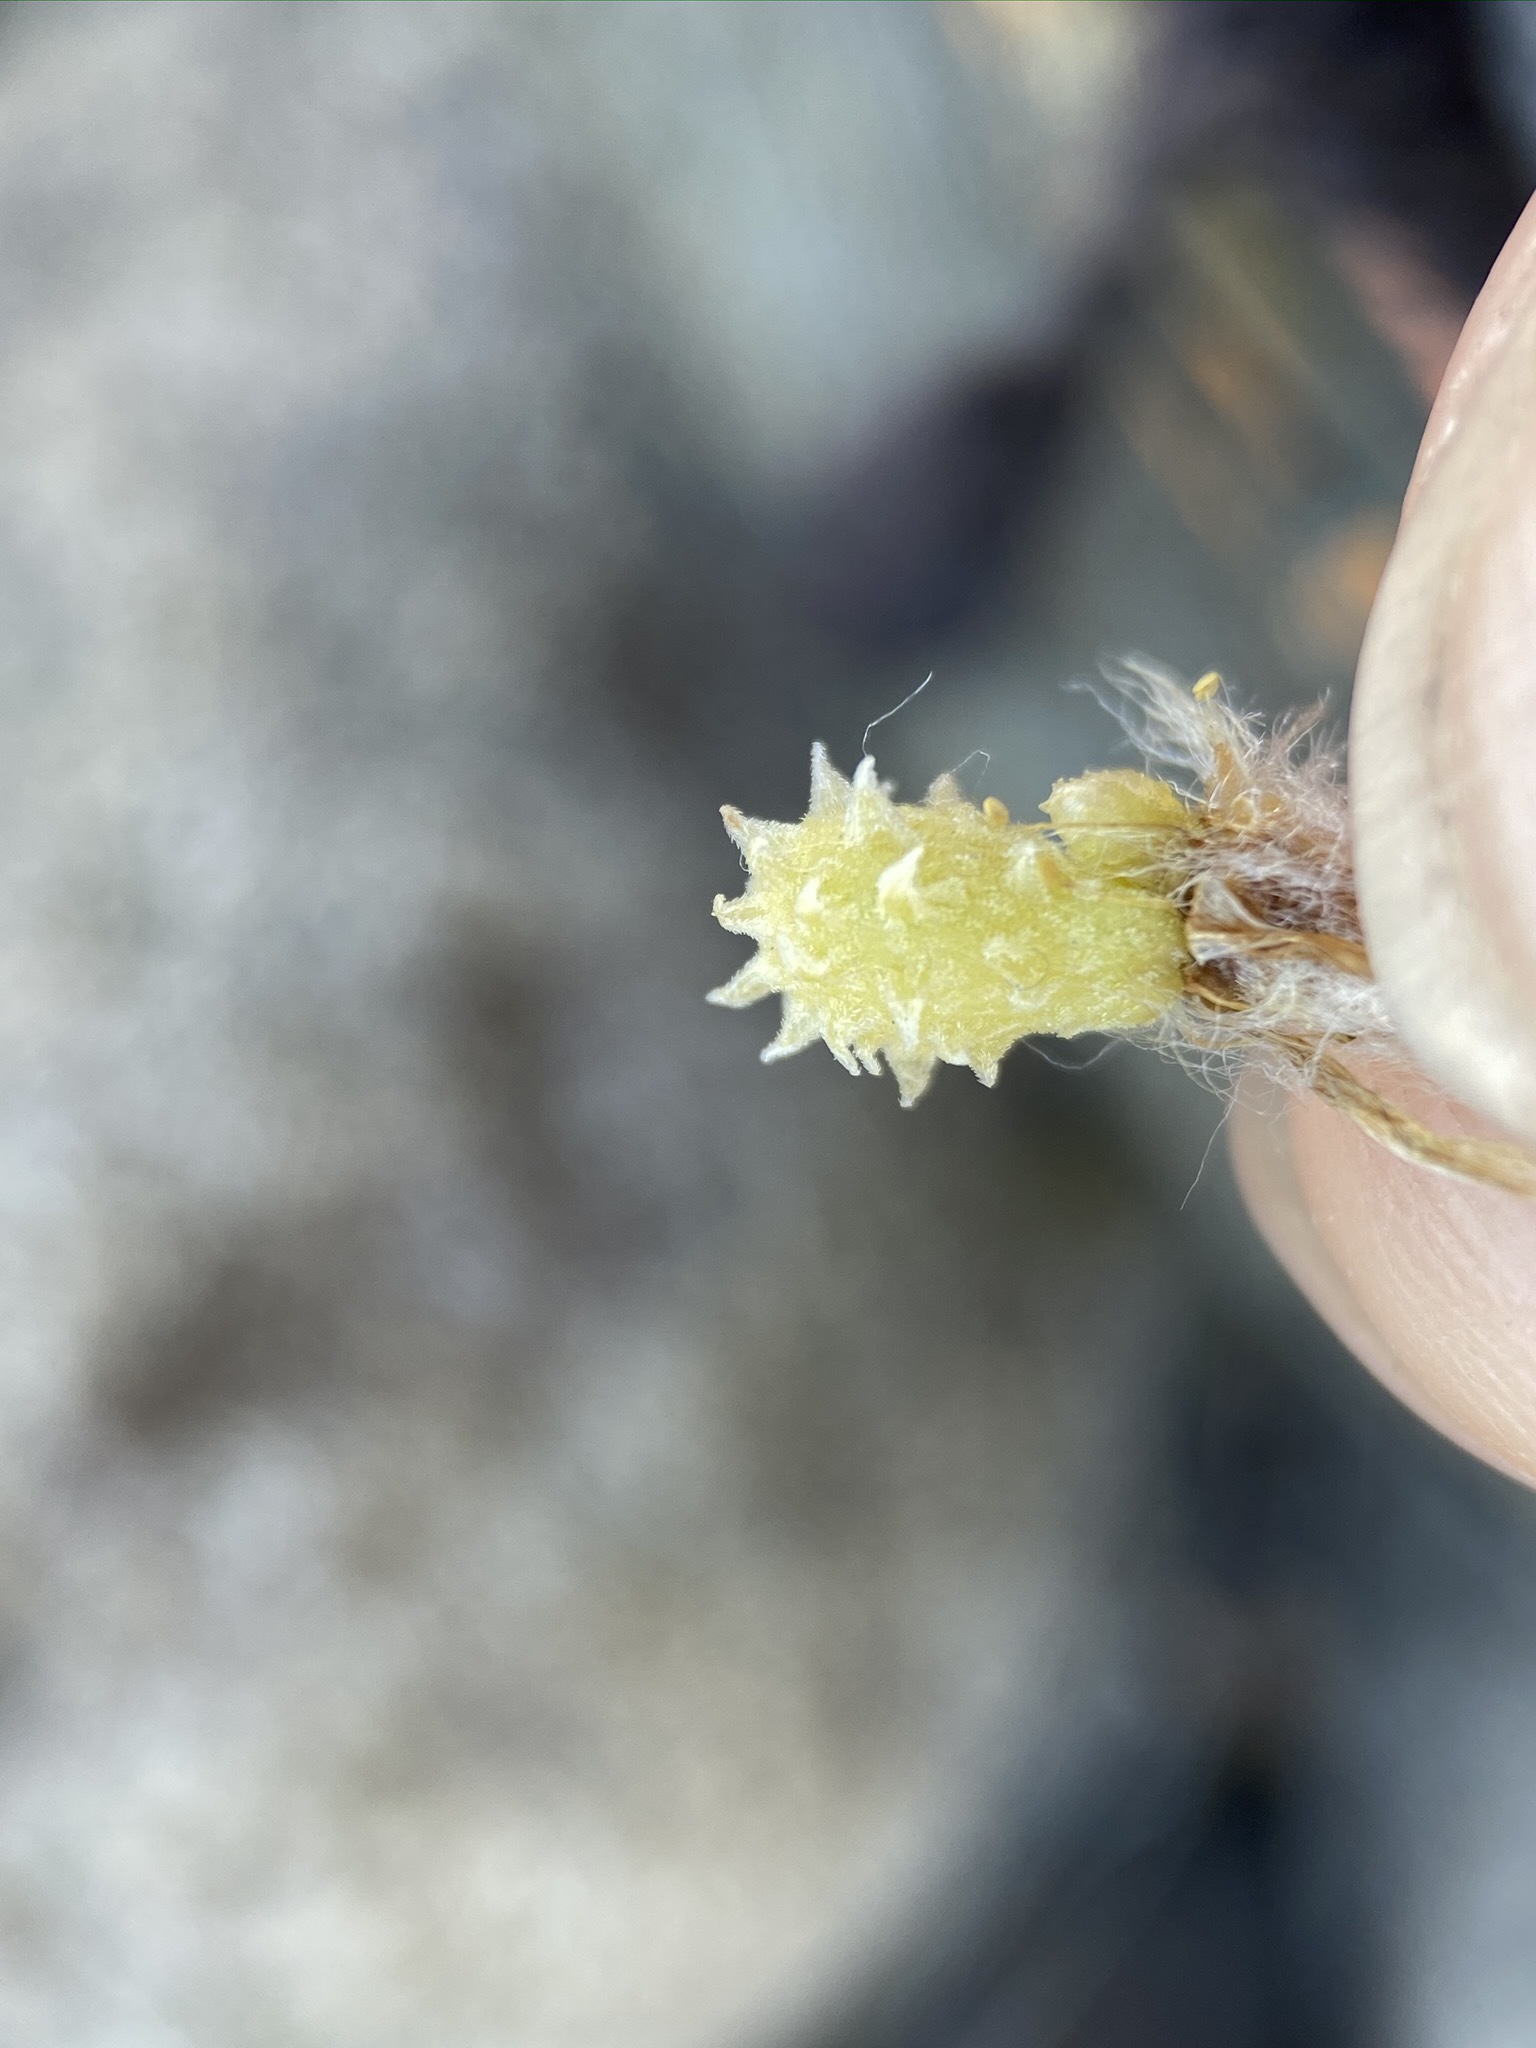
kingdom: Plantae
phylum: Tracheophyta
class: Magnoliopsida
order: Brassicales
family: Limnanthaceae
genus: Limnanthes
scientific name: Limnanthes floccosa
